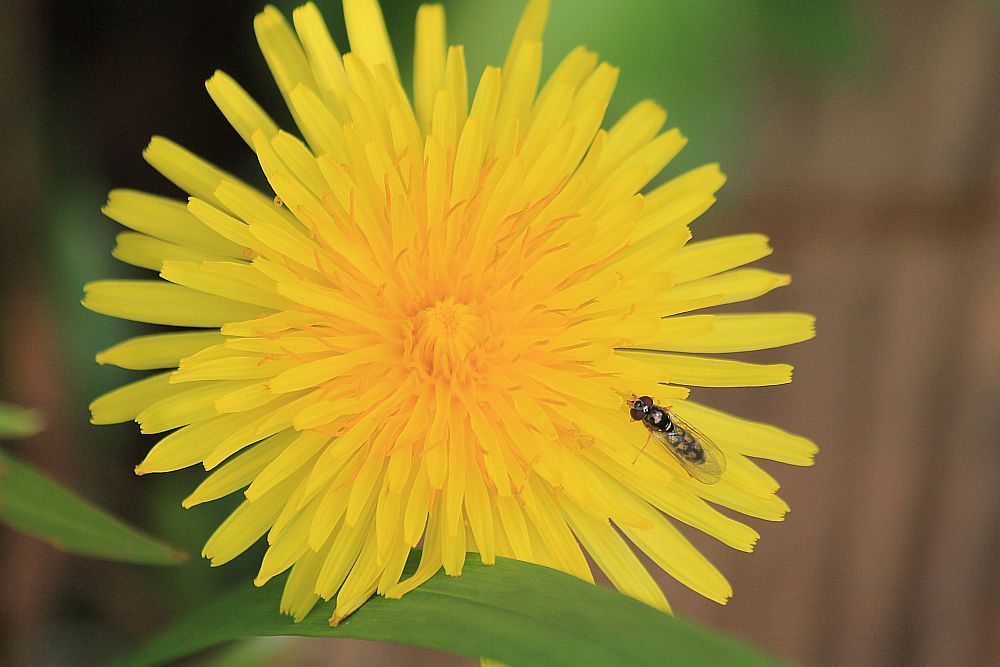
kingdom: Plantae
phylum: Tracheophyta
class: Magnoliopsida
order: Asterales
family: Asteraceae
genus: Taraxacum
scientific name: Taraxacum officinale
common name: Common dandelion
